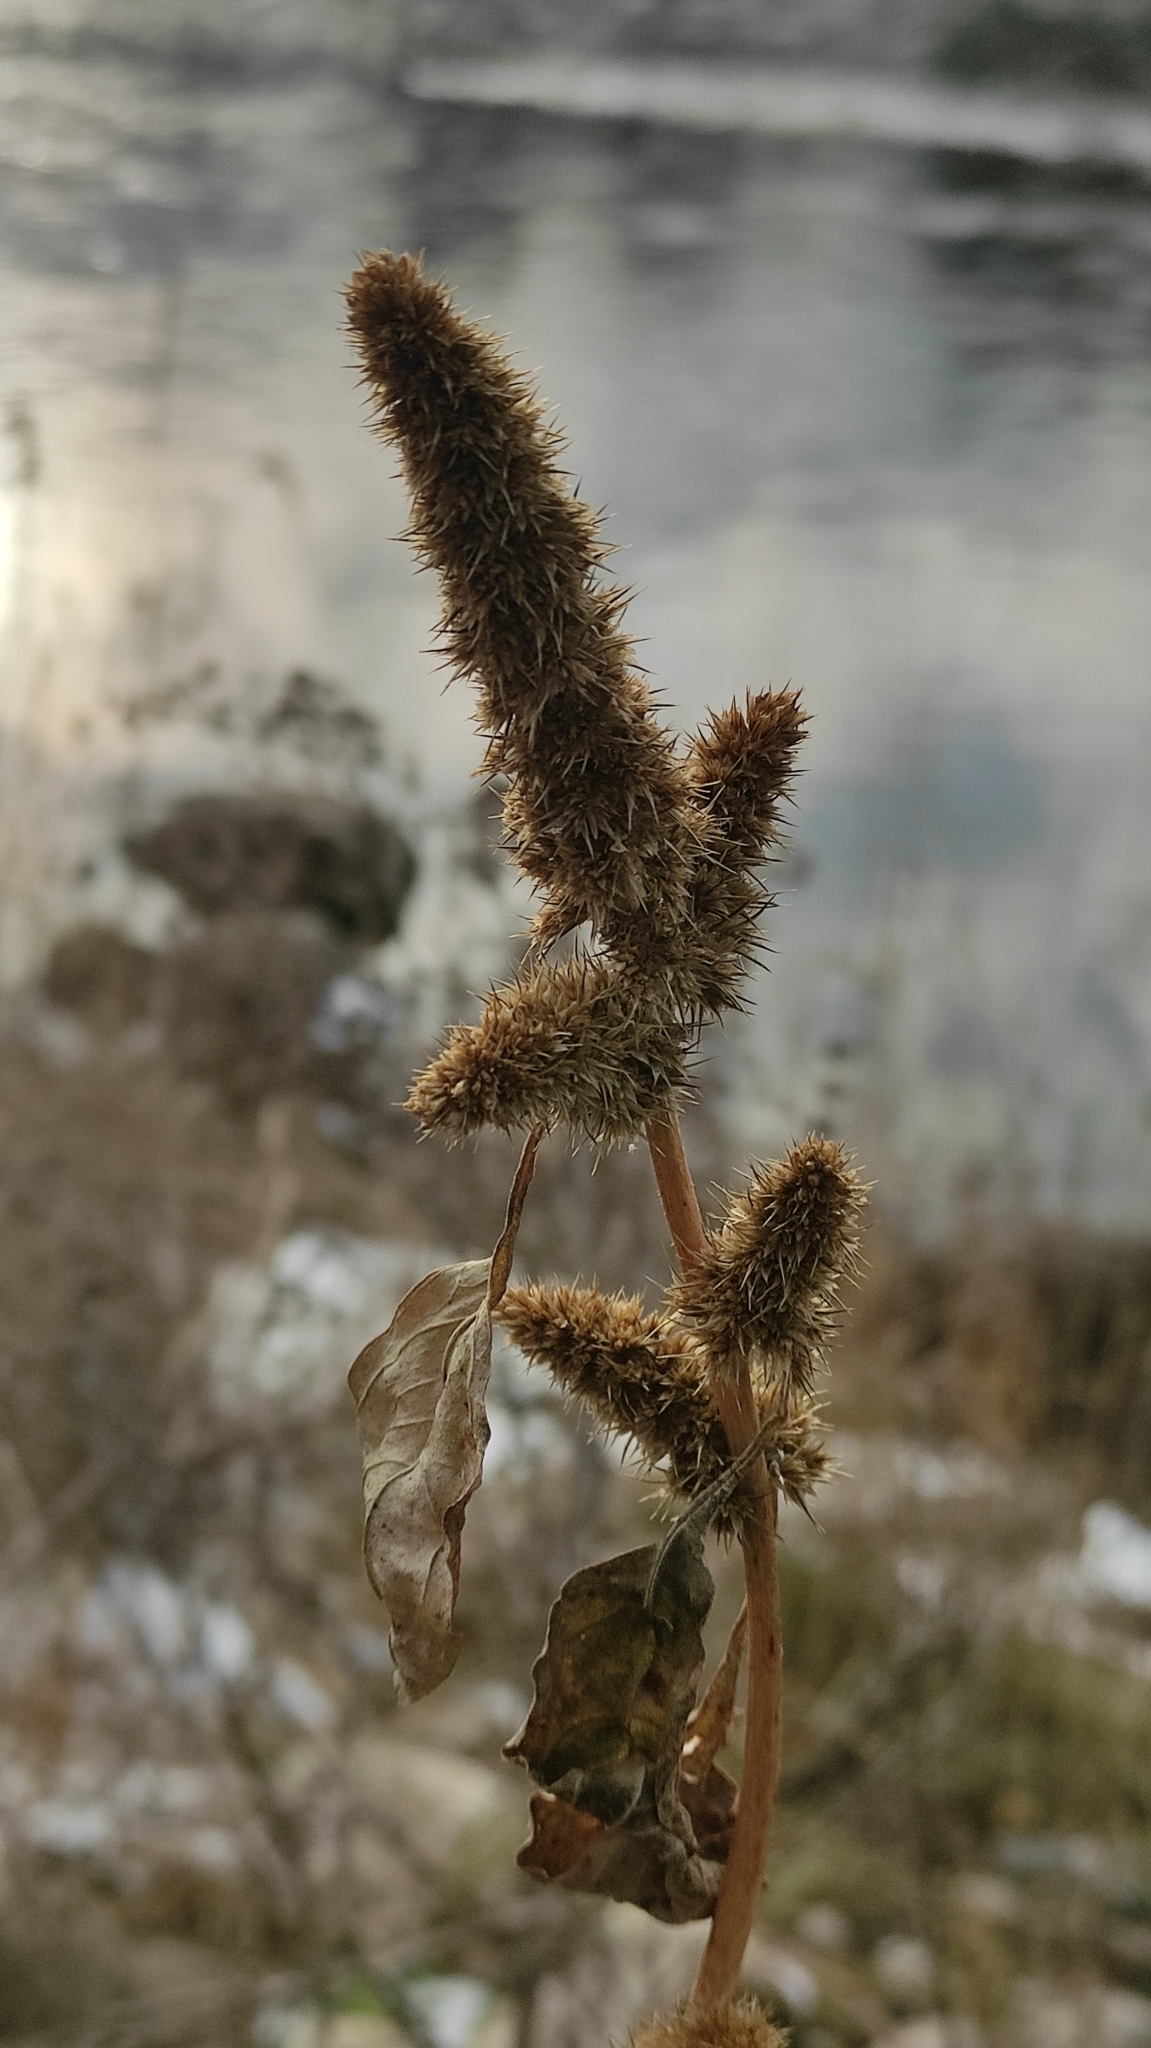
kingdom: Plantae
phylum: Tracheophyta
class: Magnoliopsida
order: Caryophyllales
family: Amaranthaceae
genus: Amaranthus
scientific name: Amaranthus retroflexus
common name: Redroot amaranth
